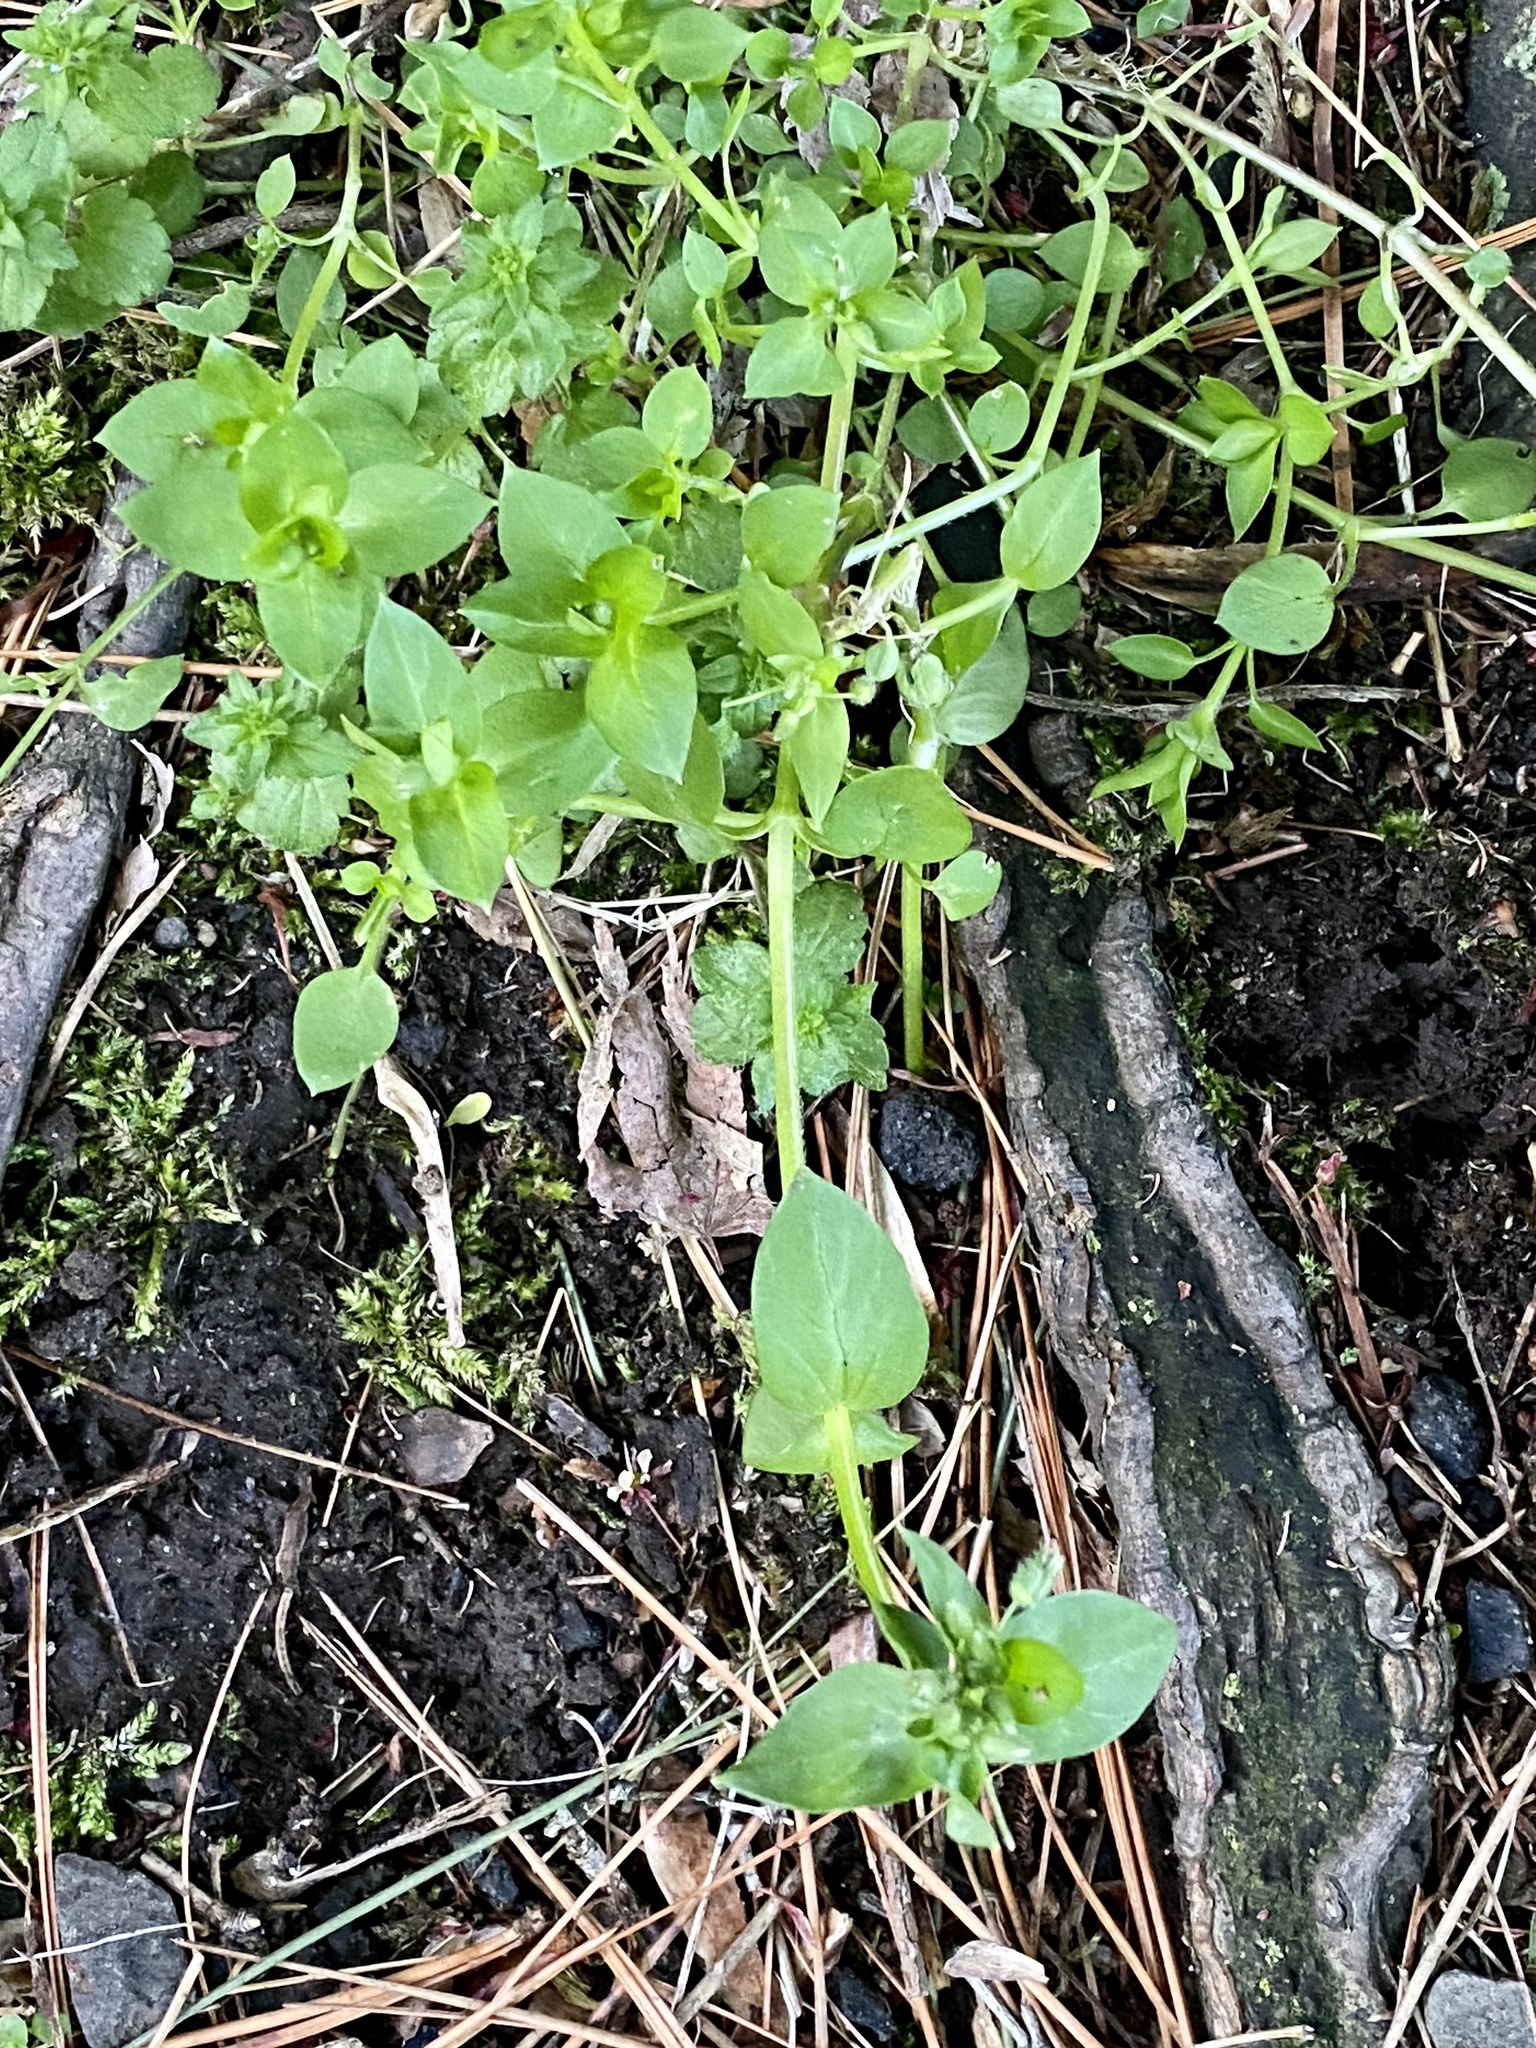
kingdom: Plantae
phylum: Tracheophyta
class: Magnoliopsida
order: Caryophyllales
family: Caryophyllaceae
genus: Stellaria
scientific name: Stellaria media
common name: Common chickweed
